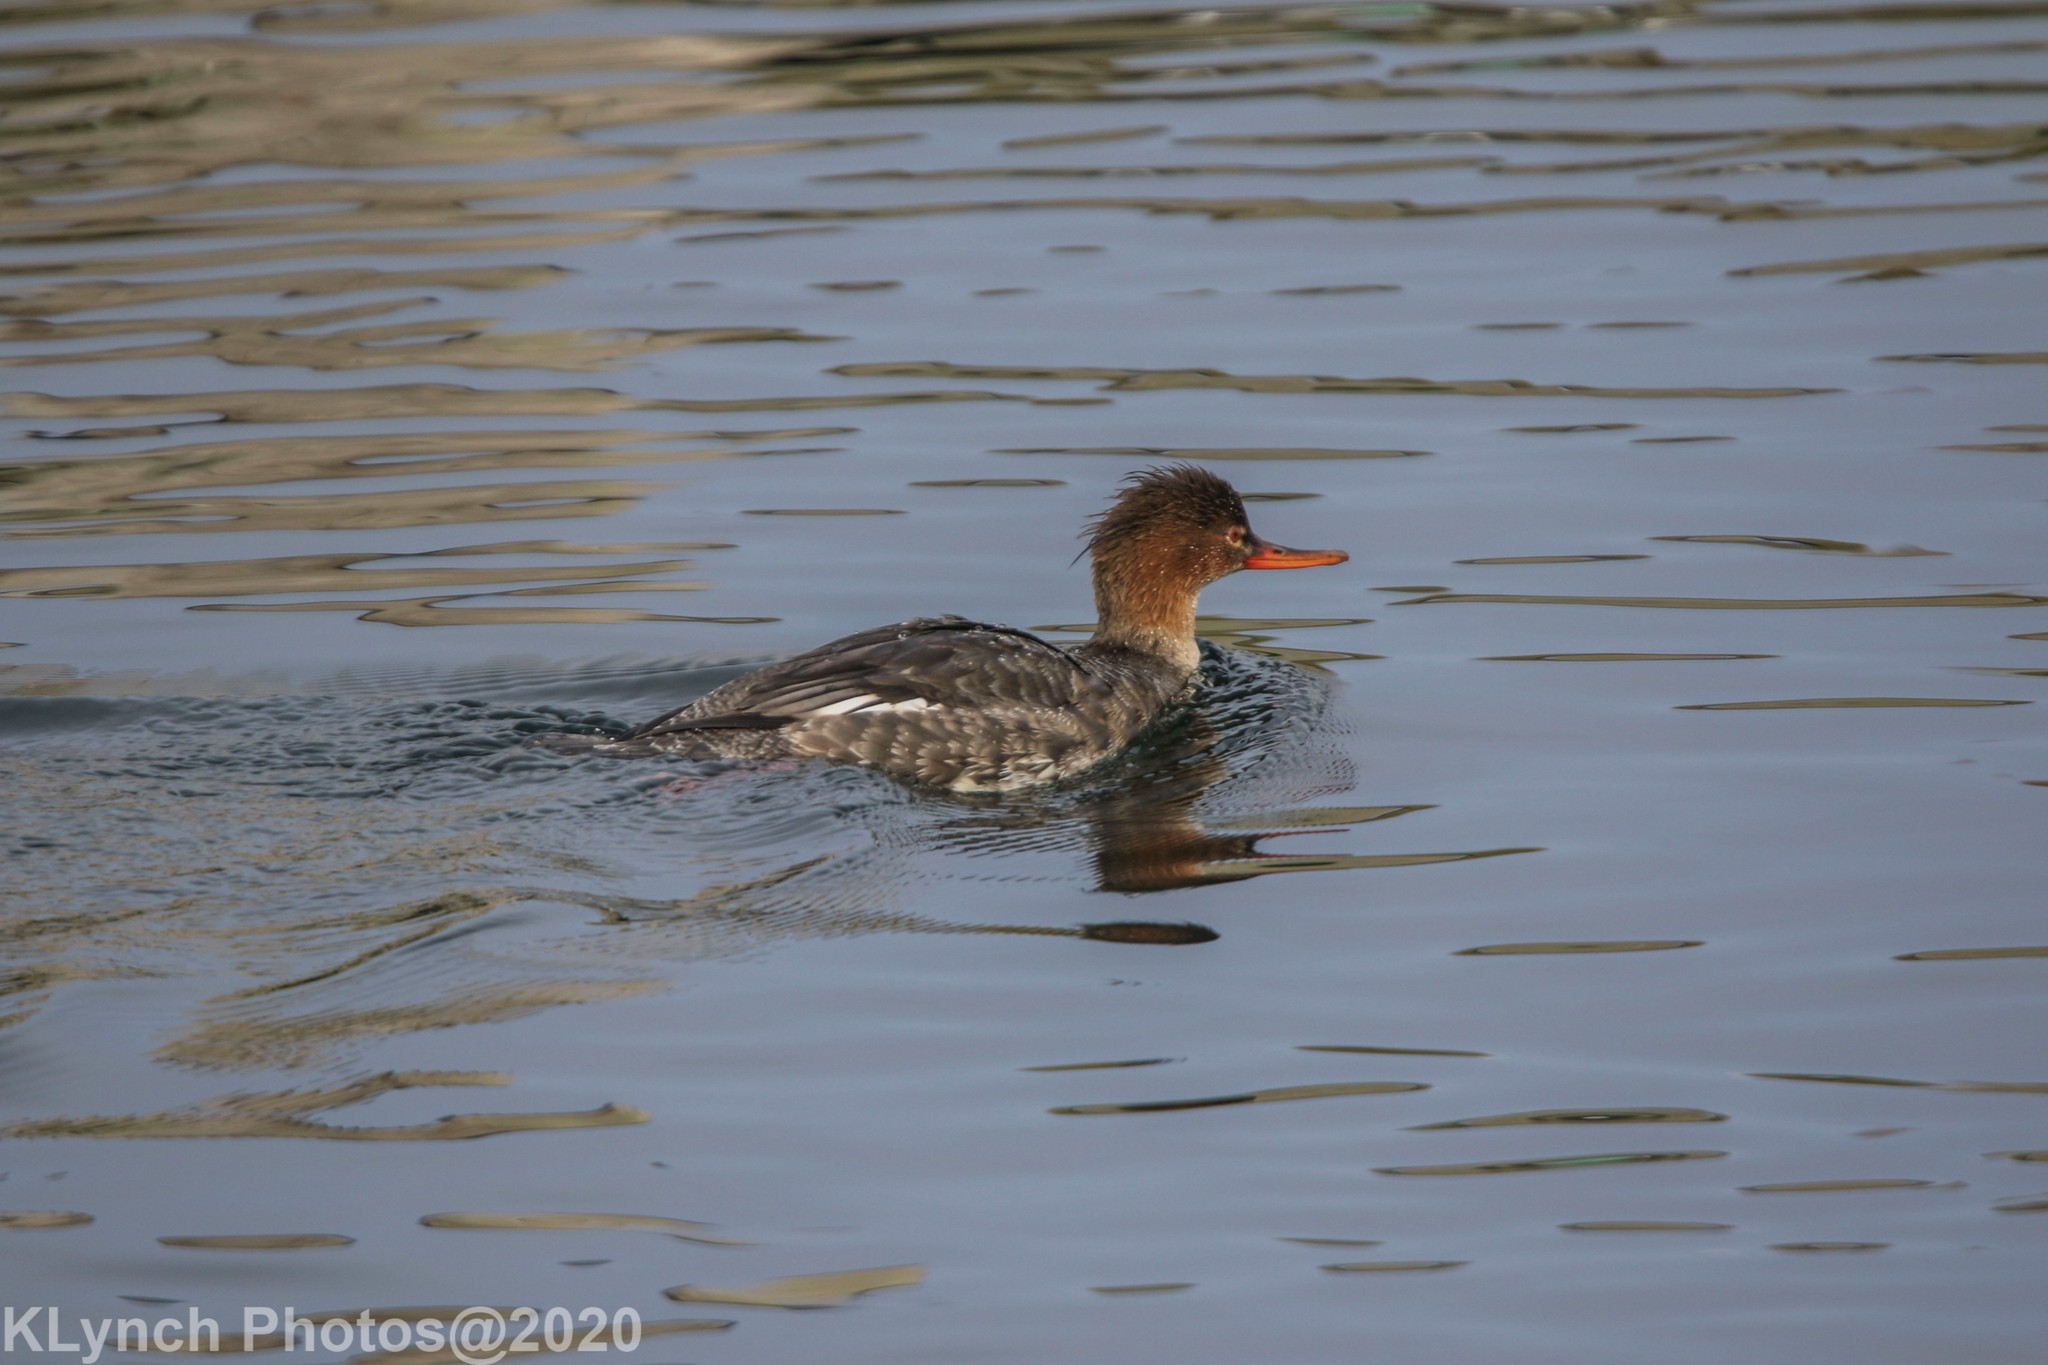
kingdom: Animalia
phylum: Chordata
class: Aves
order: Anseriformes
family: Anatidae
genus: Mergus
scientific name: Mergus serrator
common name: Red-breasted merganser
